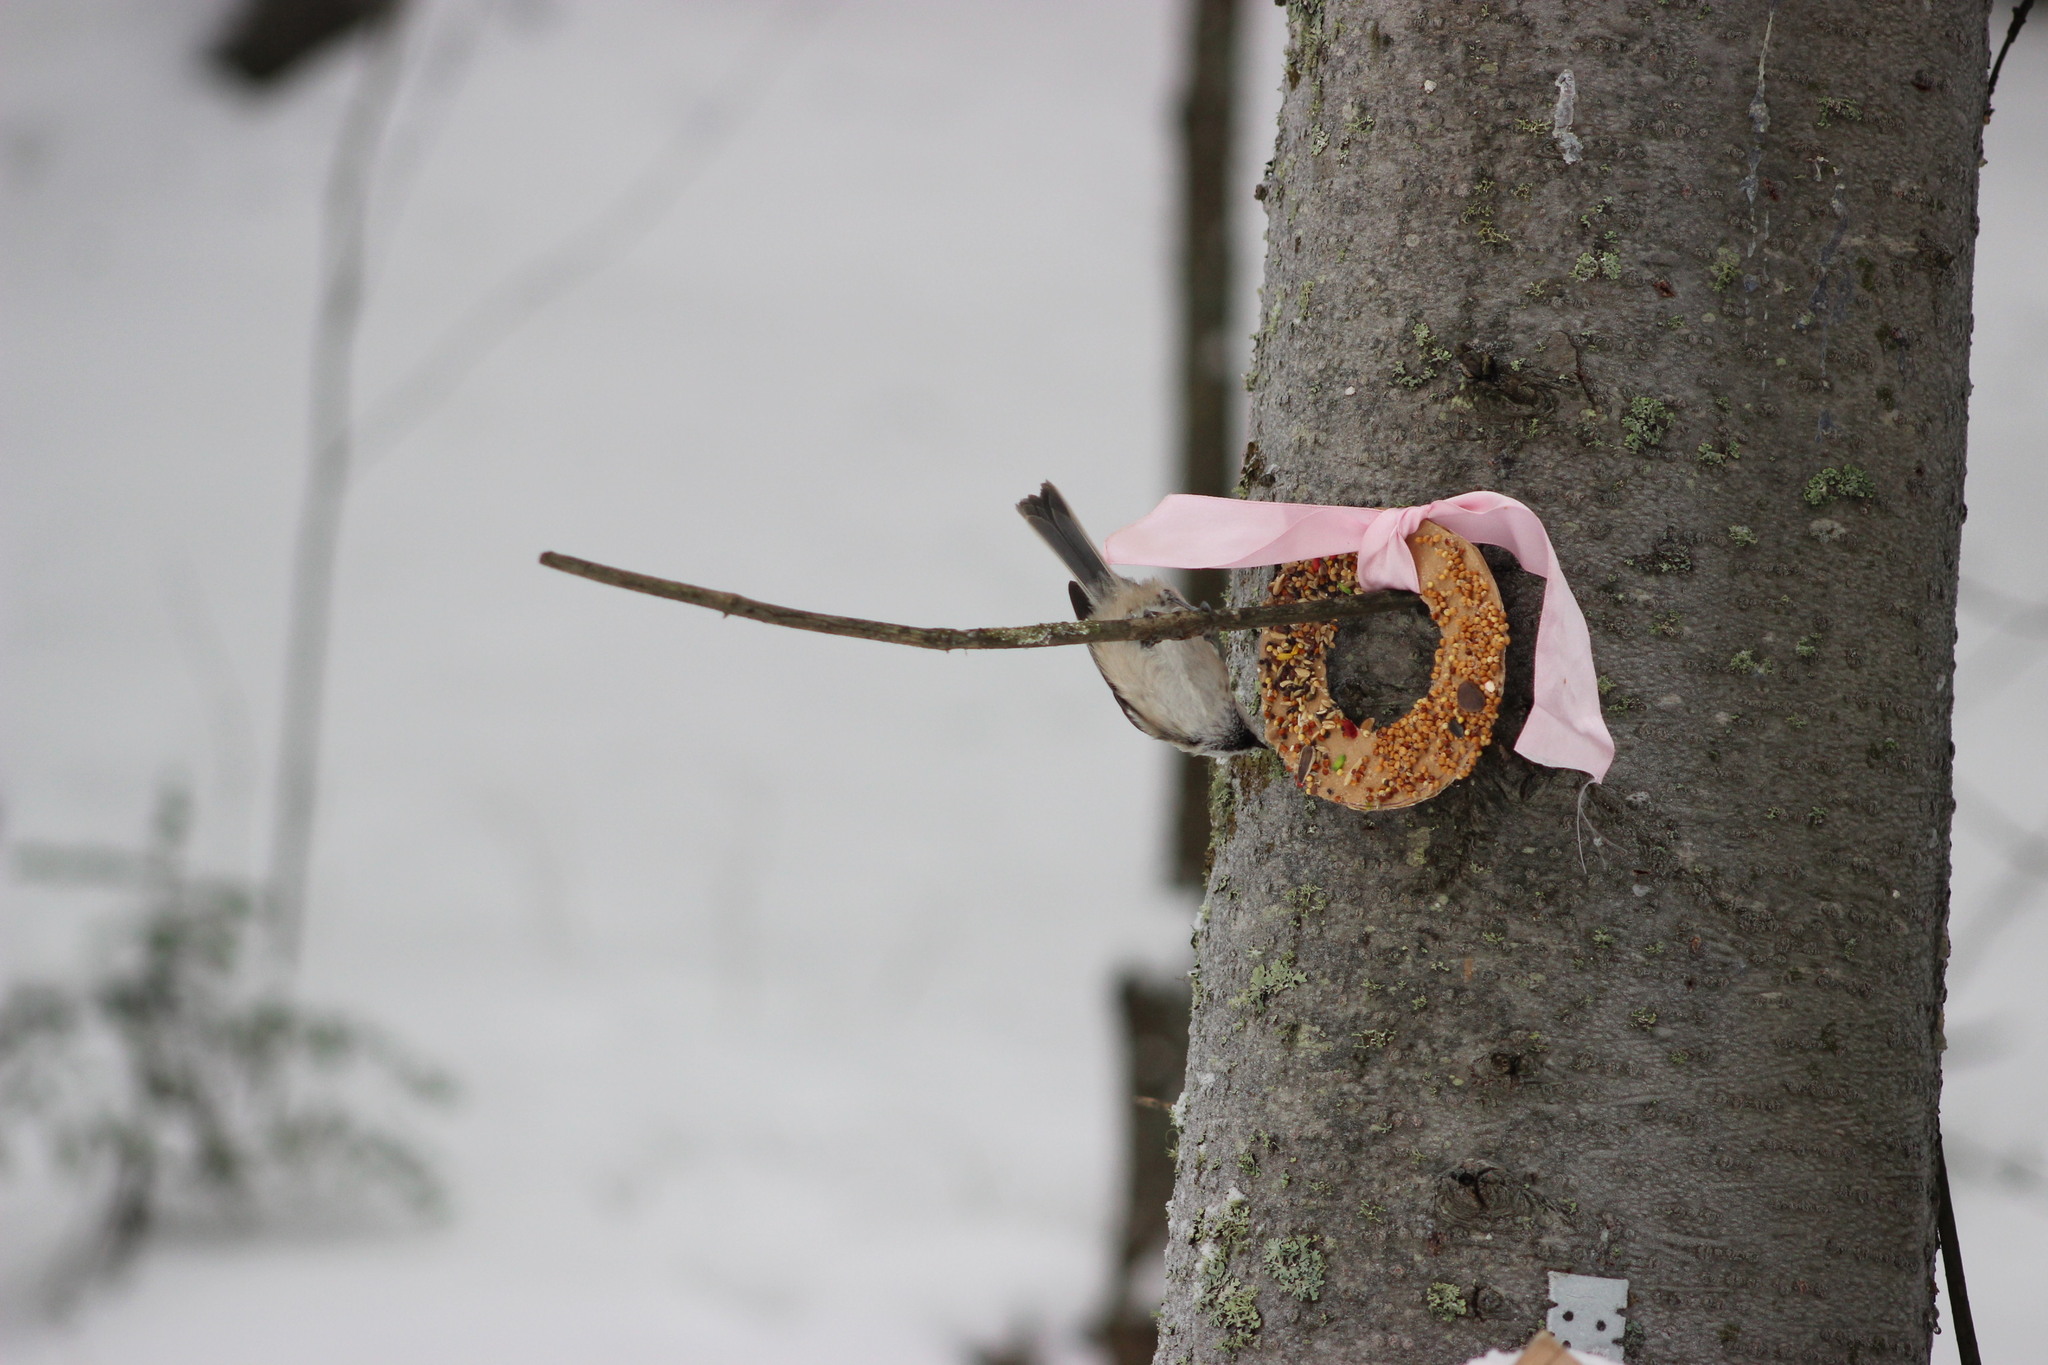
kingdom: Animalia
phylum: Chordata
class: Aves
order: Passeriformes
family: Paridae
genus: Poecile
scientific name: Poecile montanus
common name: Willow tit
